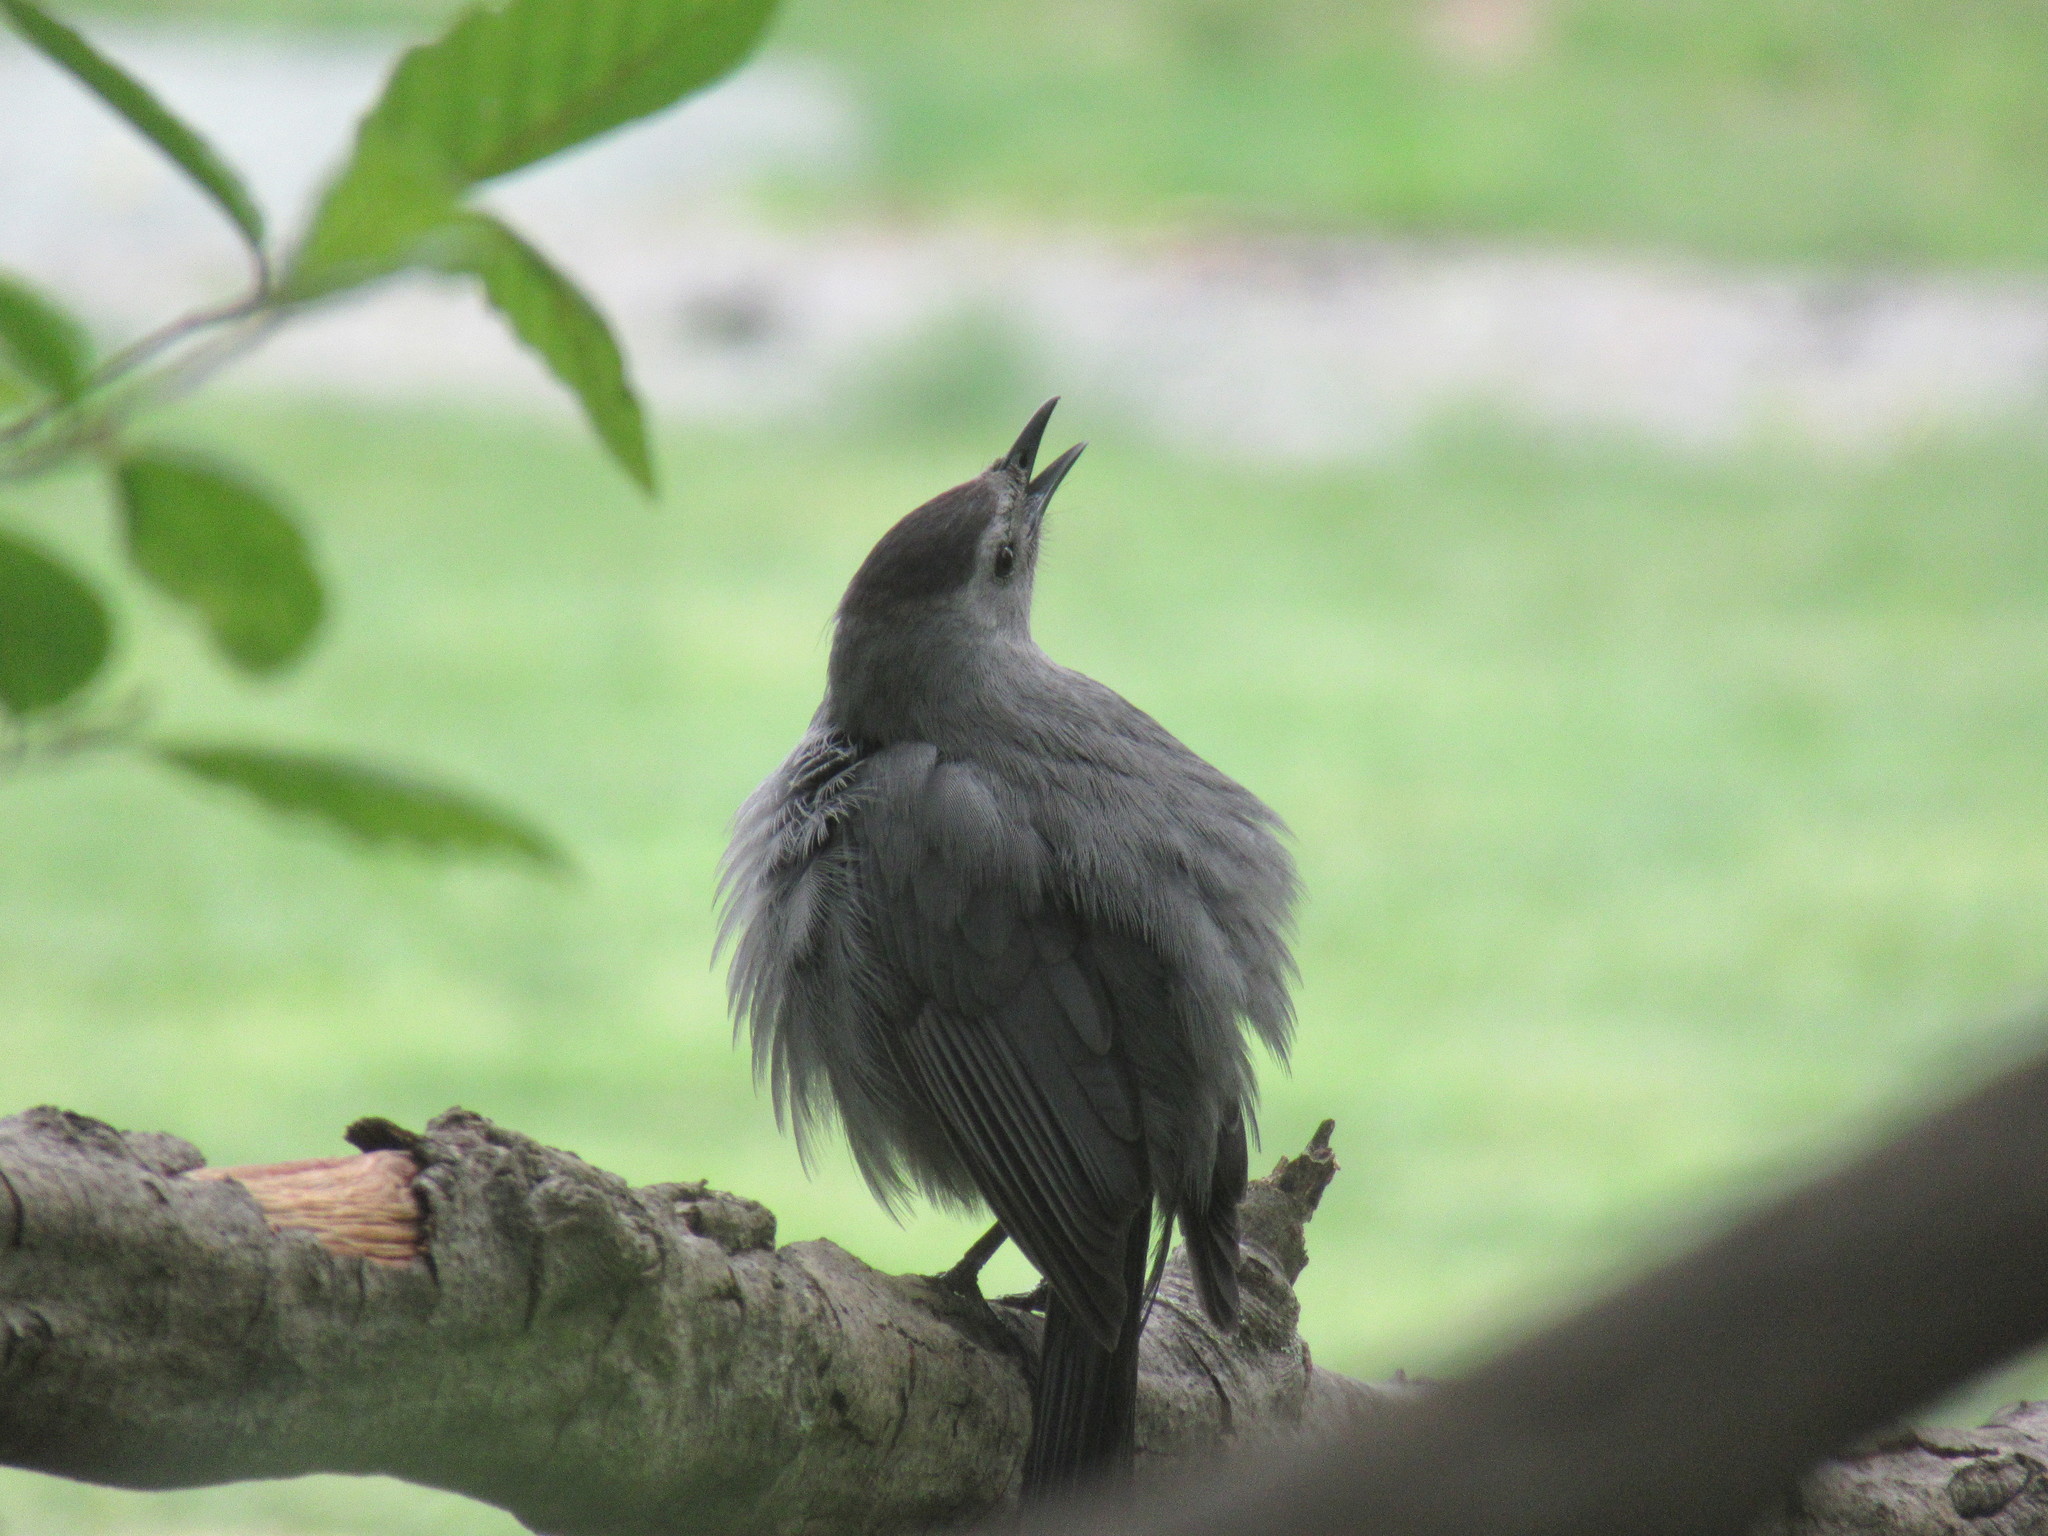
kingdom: Animalia
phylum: Chordata
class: Aves
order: Passeriformes
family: Mimidae
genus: Dumetella
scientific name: Dumetella carolinensis
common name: Gray catbird
